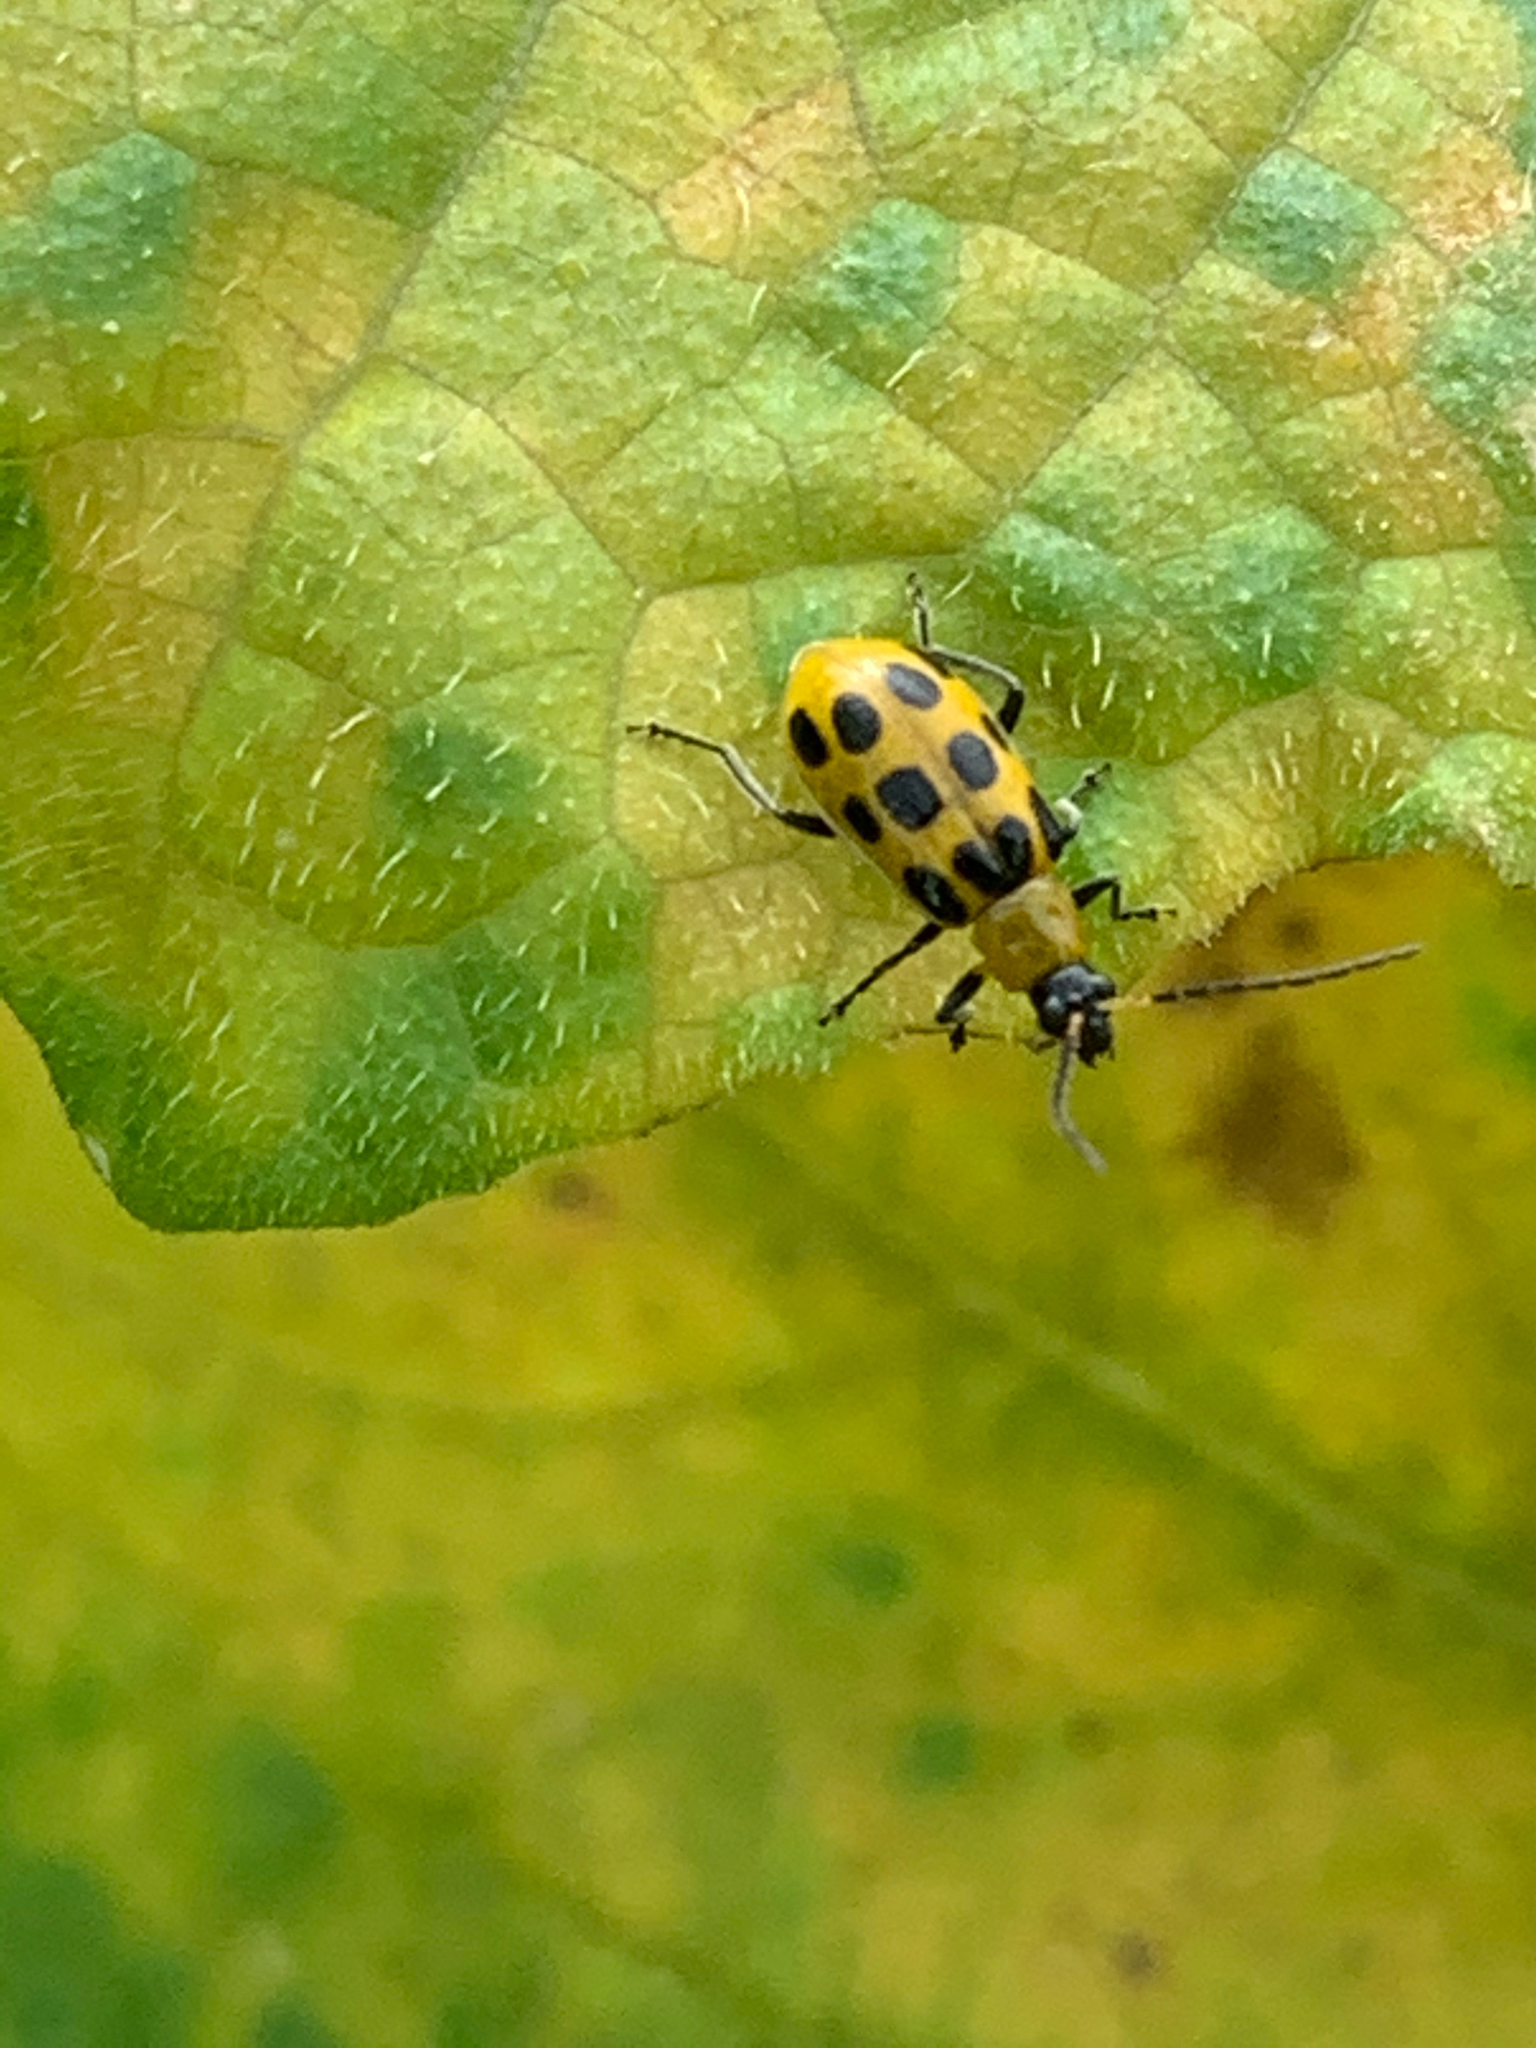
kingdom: Animalia
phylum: Arthropoda
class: Insecta
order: Coleoptera
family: Chrysomelidae
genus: Diabrotica
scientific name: Diabrotica undecimpunctata
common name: Spotted cucumber beetle
